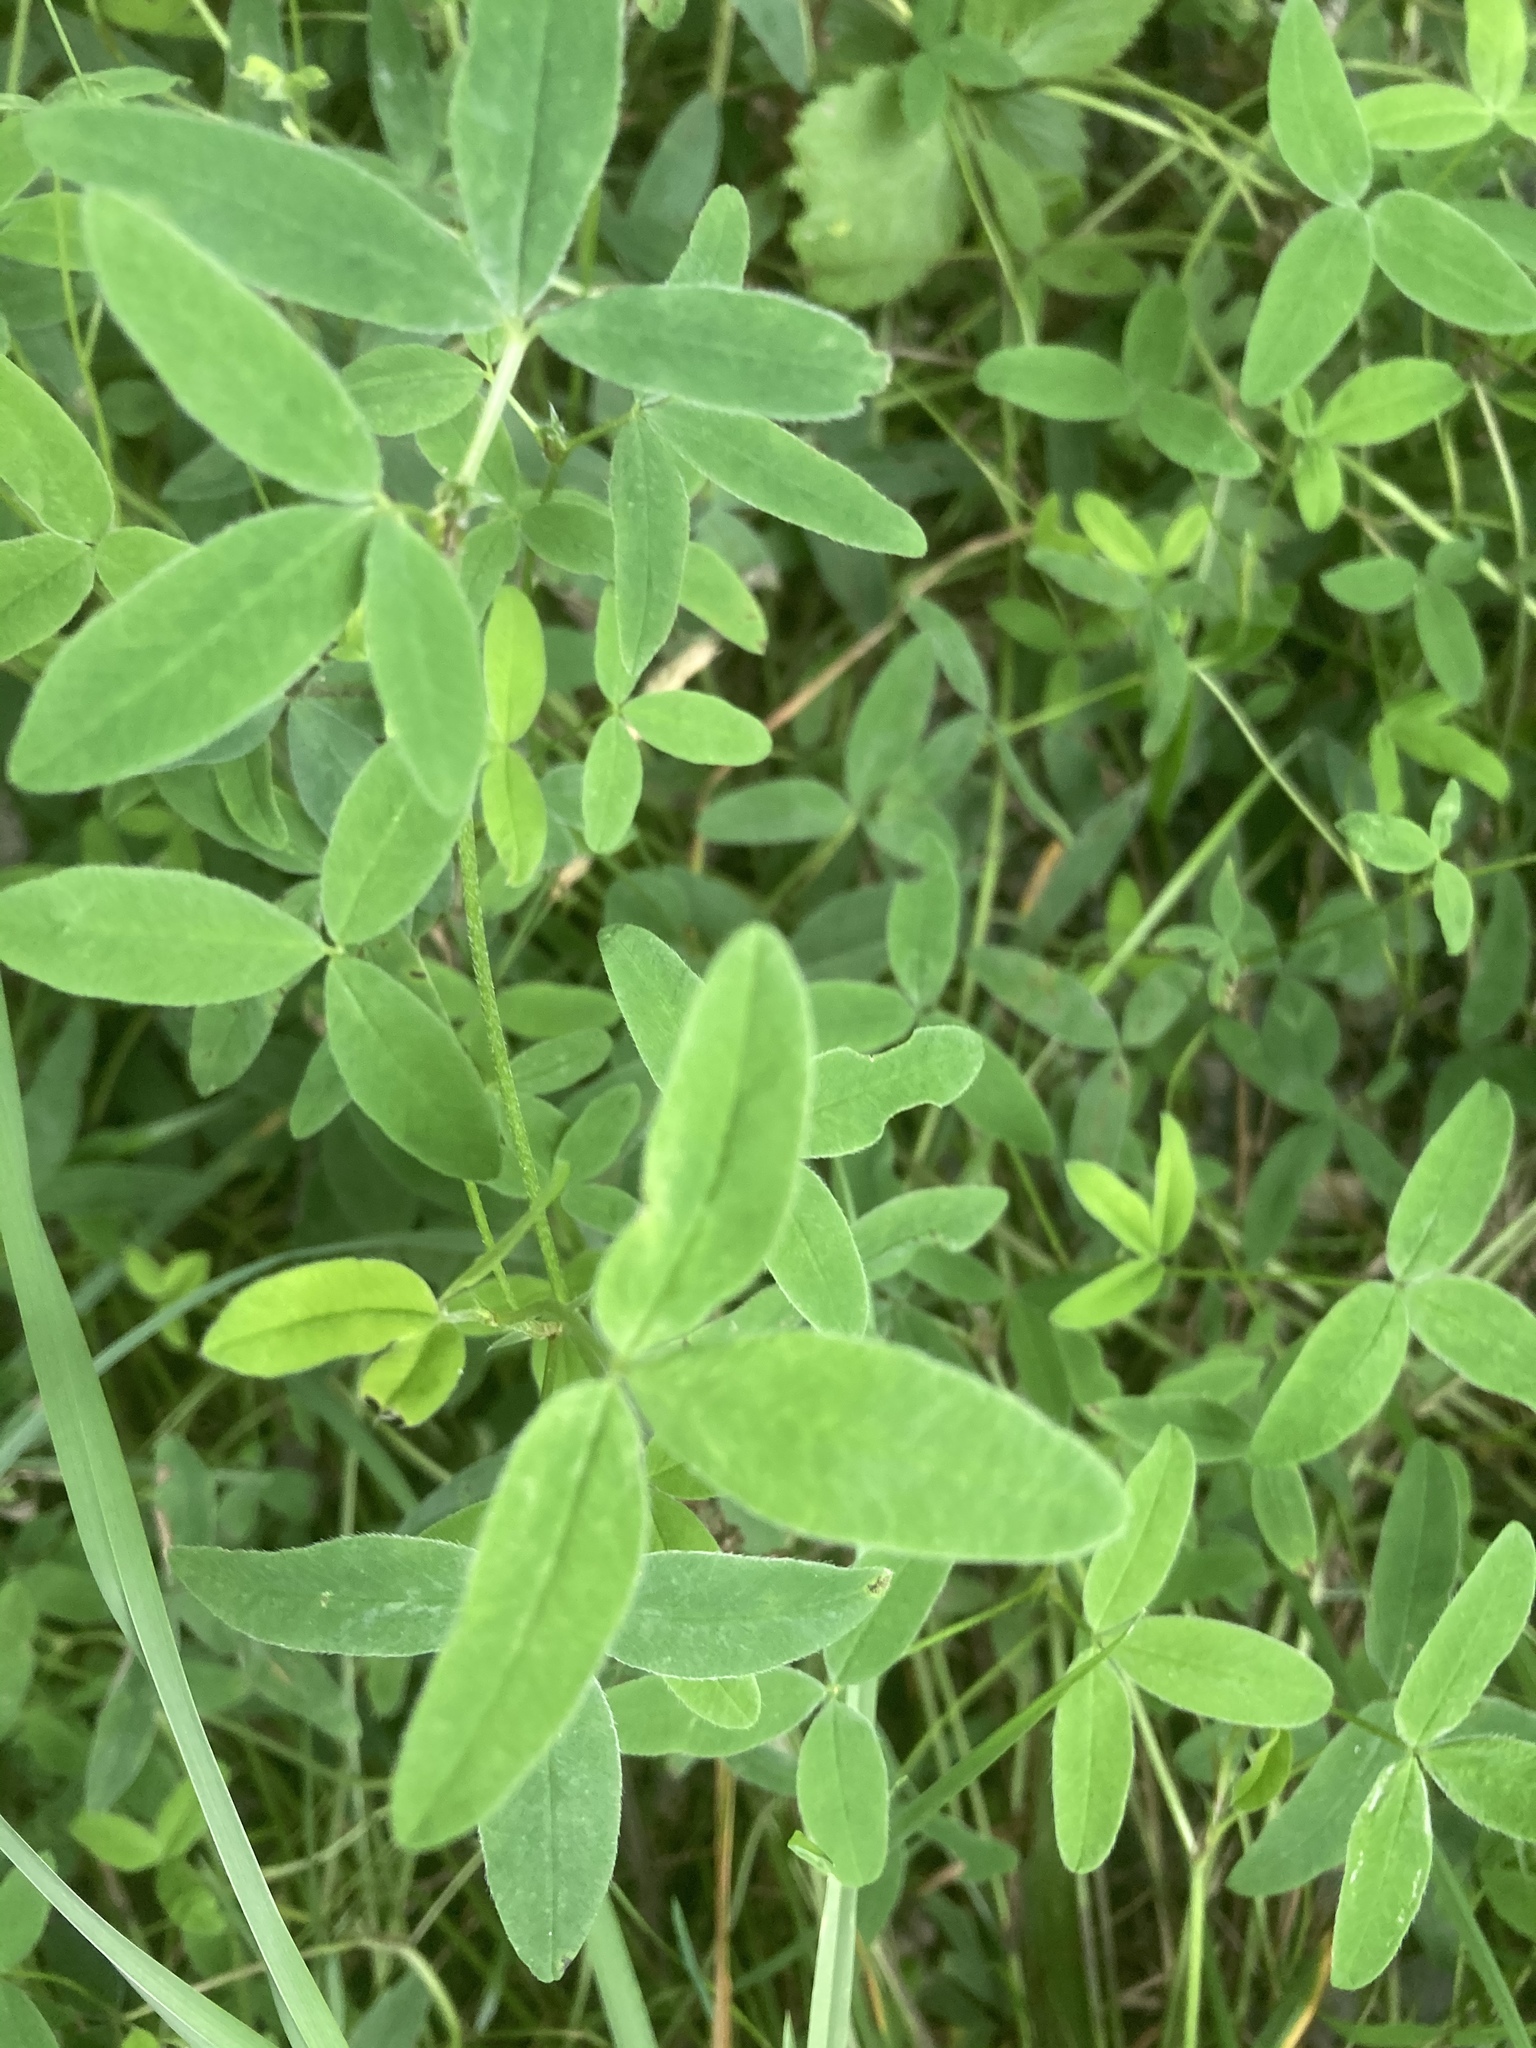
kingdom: Plantae
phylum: Tracheophyta
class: Magnoliopsida
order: Fabales
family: Fabaceae
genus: Trifolium
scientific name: Trifolium medium
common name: Zigzag clover
